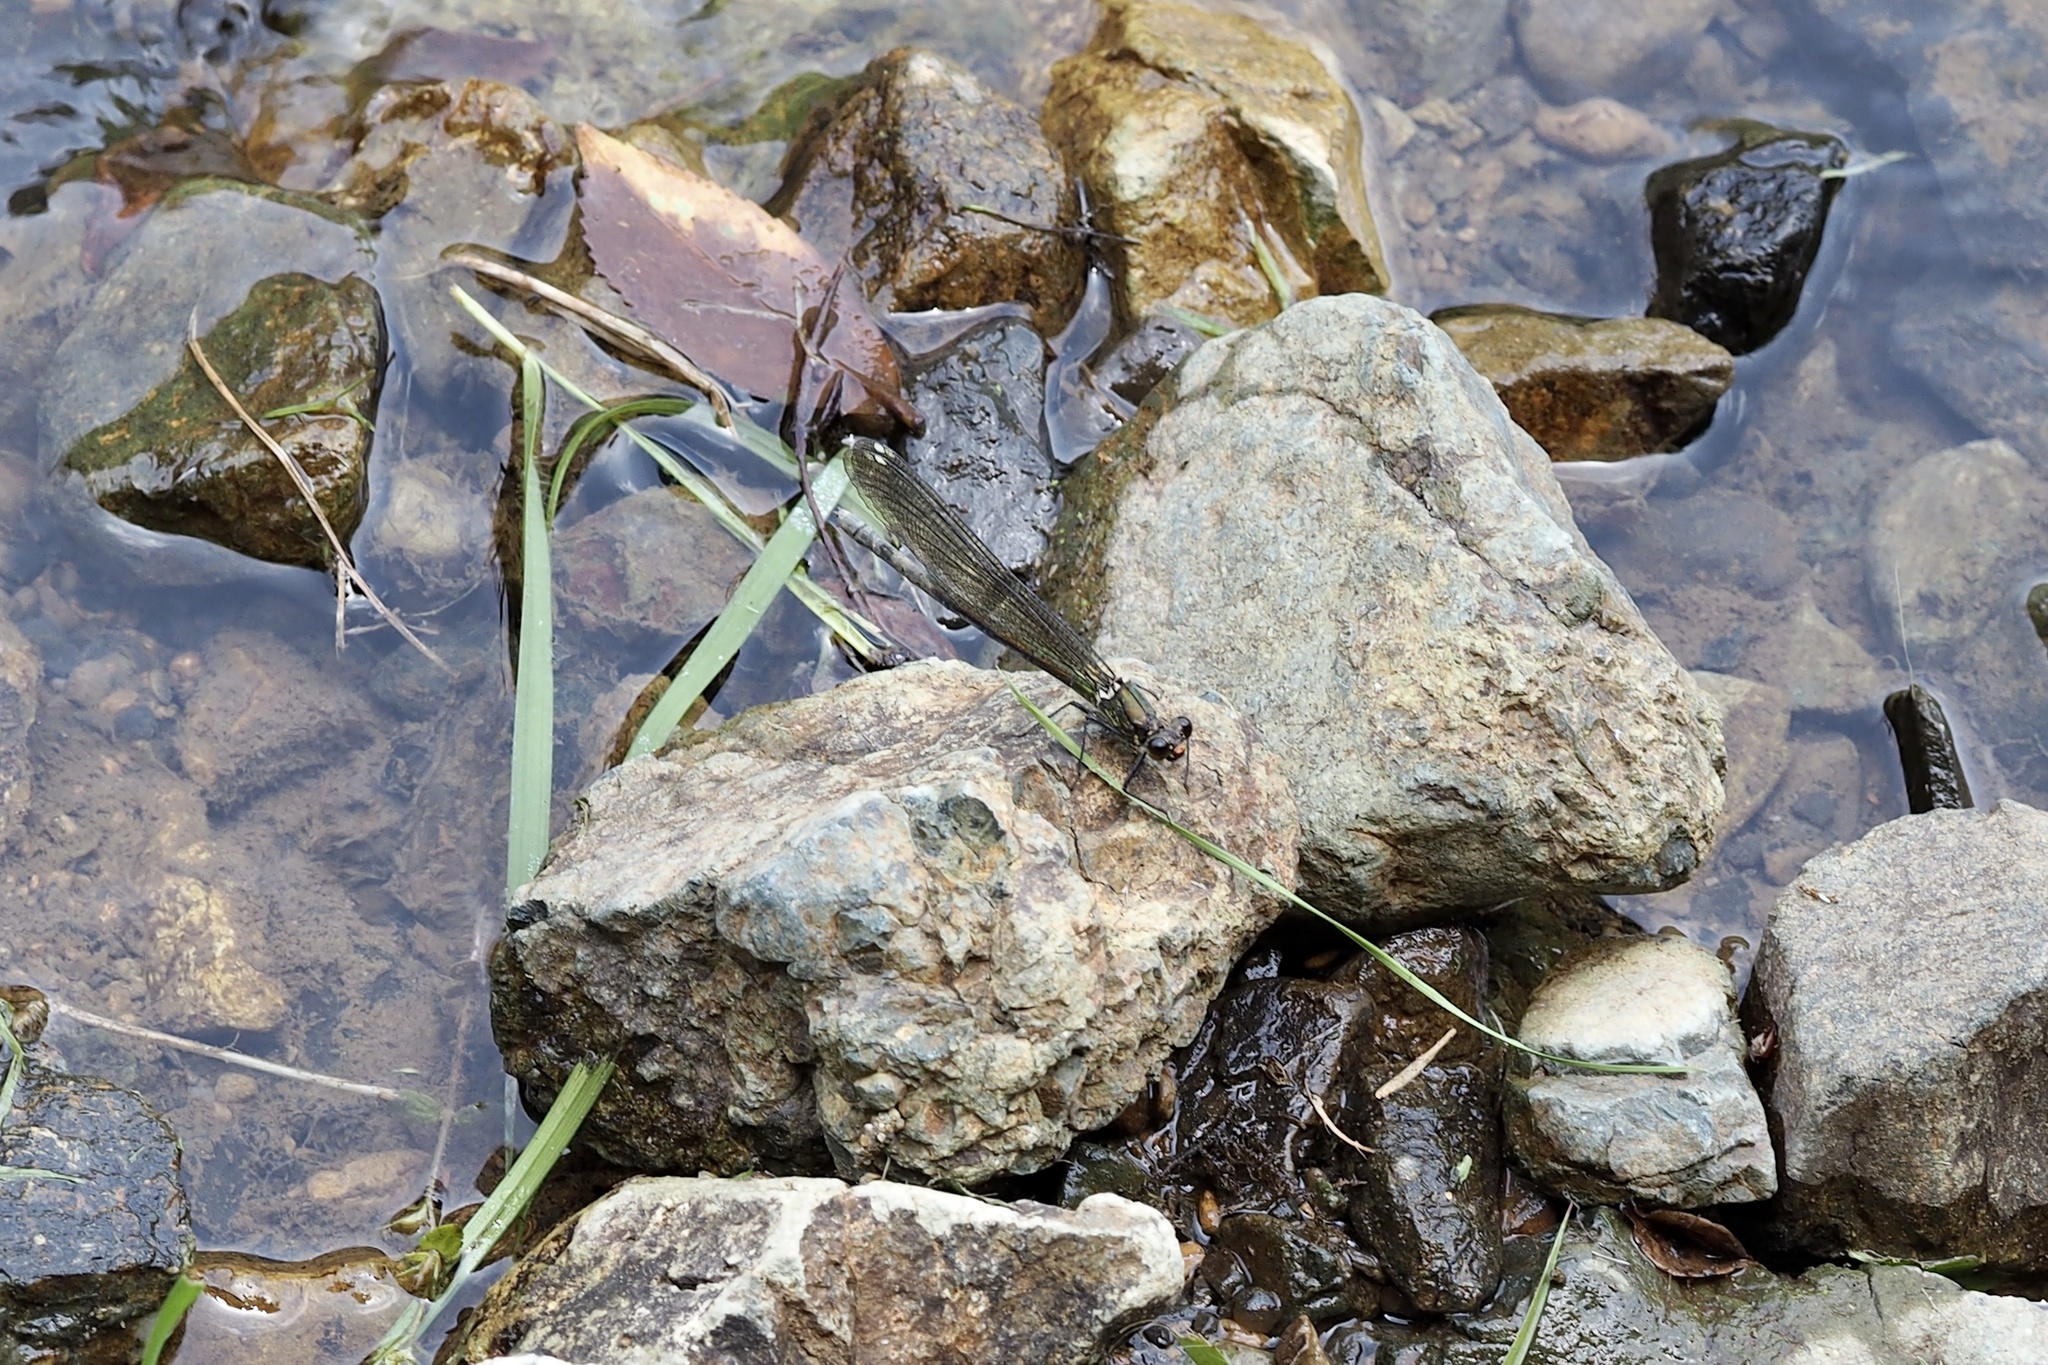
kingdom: Animalia
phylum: Arthropoda
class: Insecta
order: Odonata
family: Calopterygidae
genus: Mnais
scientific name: Mnais pruinosa
